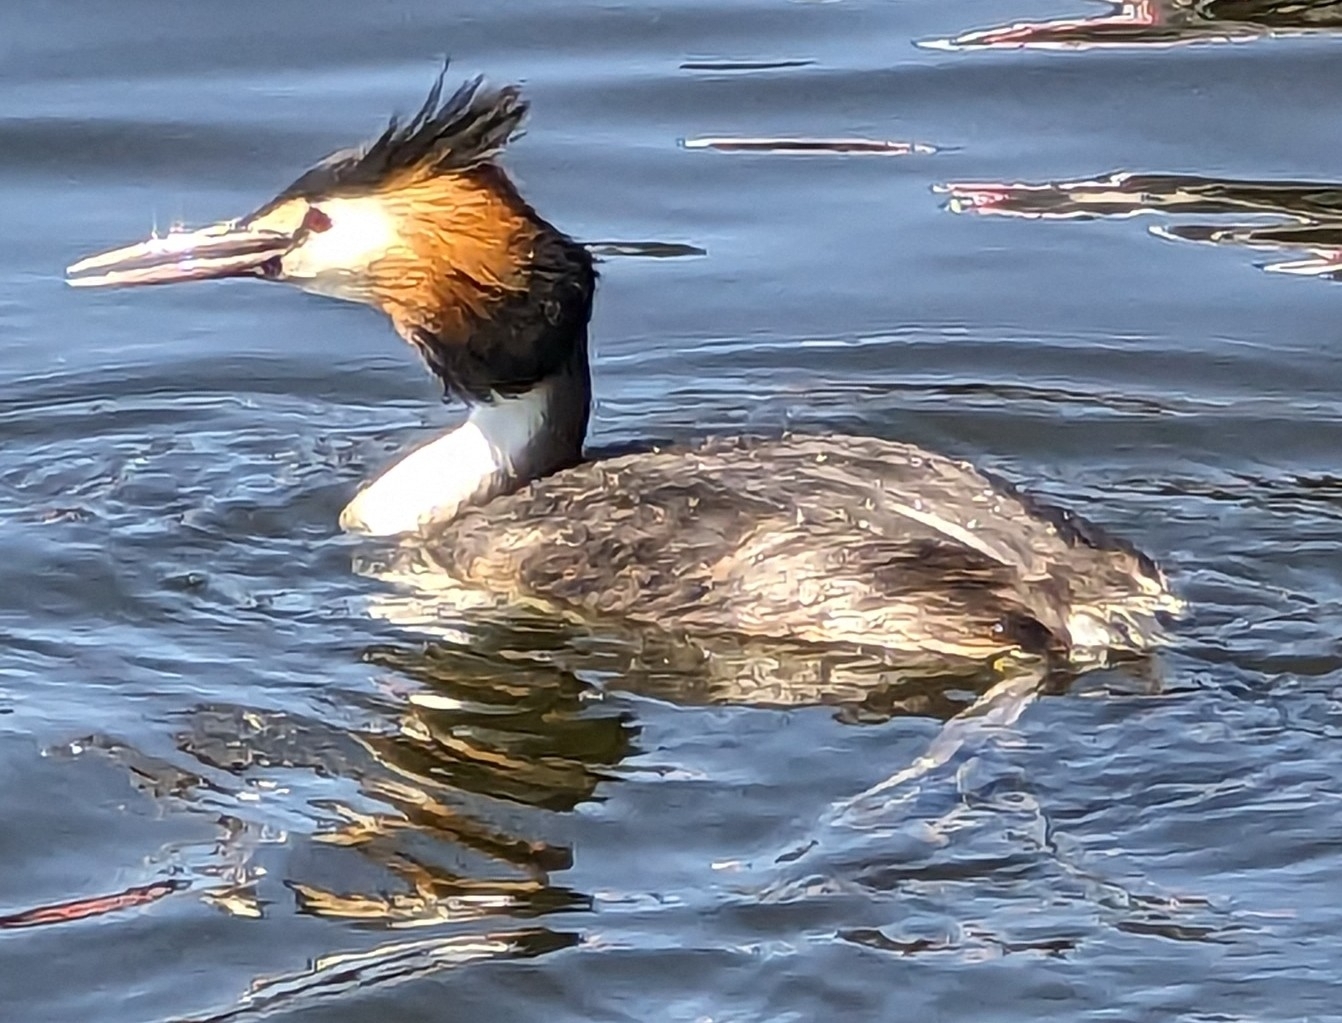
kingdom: Animalia
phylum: Chordata
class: Aves
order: Podicipediformes
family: Podicipedidae
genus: Podiceps
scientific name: Podiceps cristatus
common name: Great crested grebe
